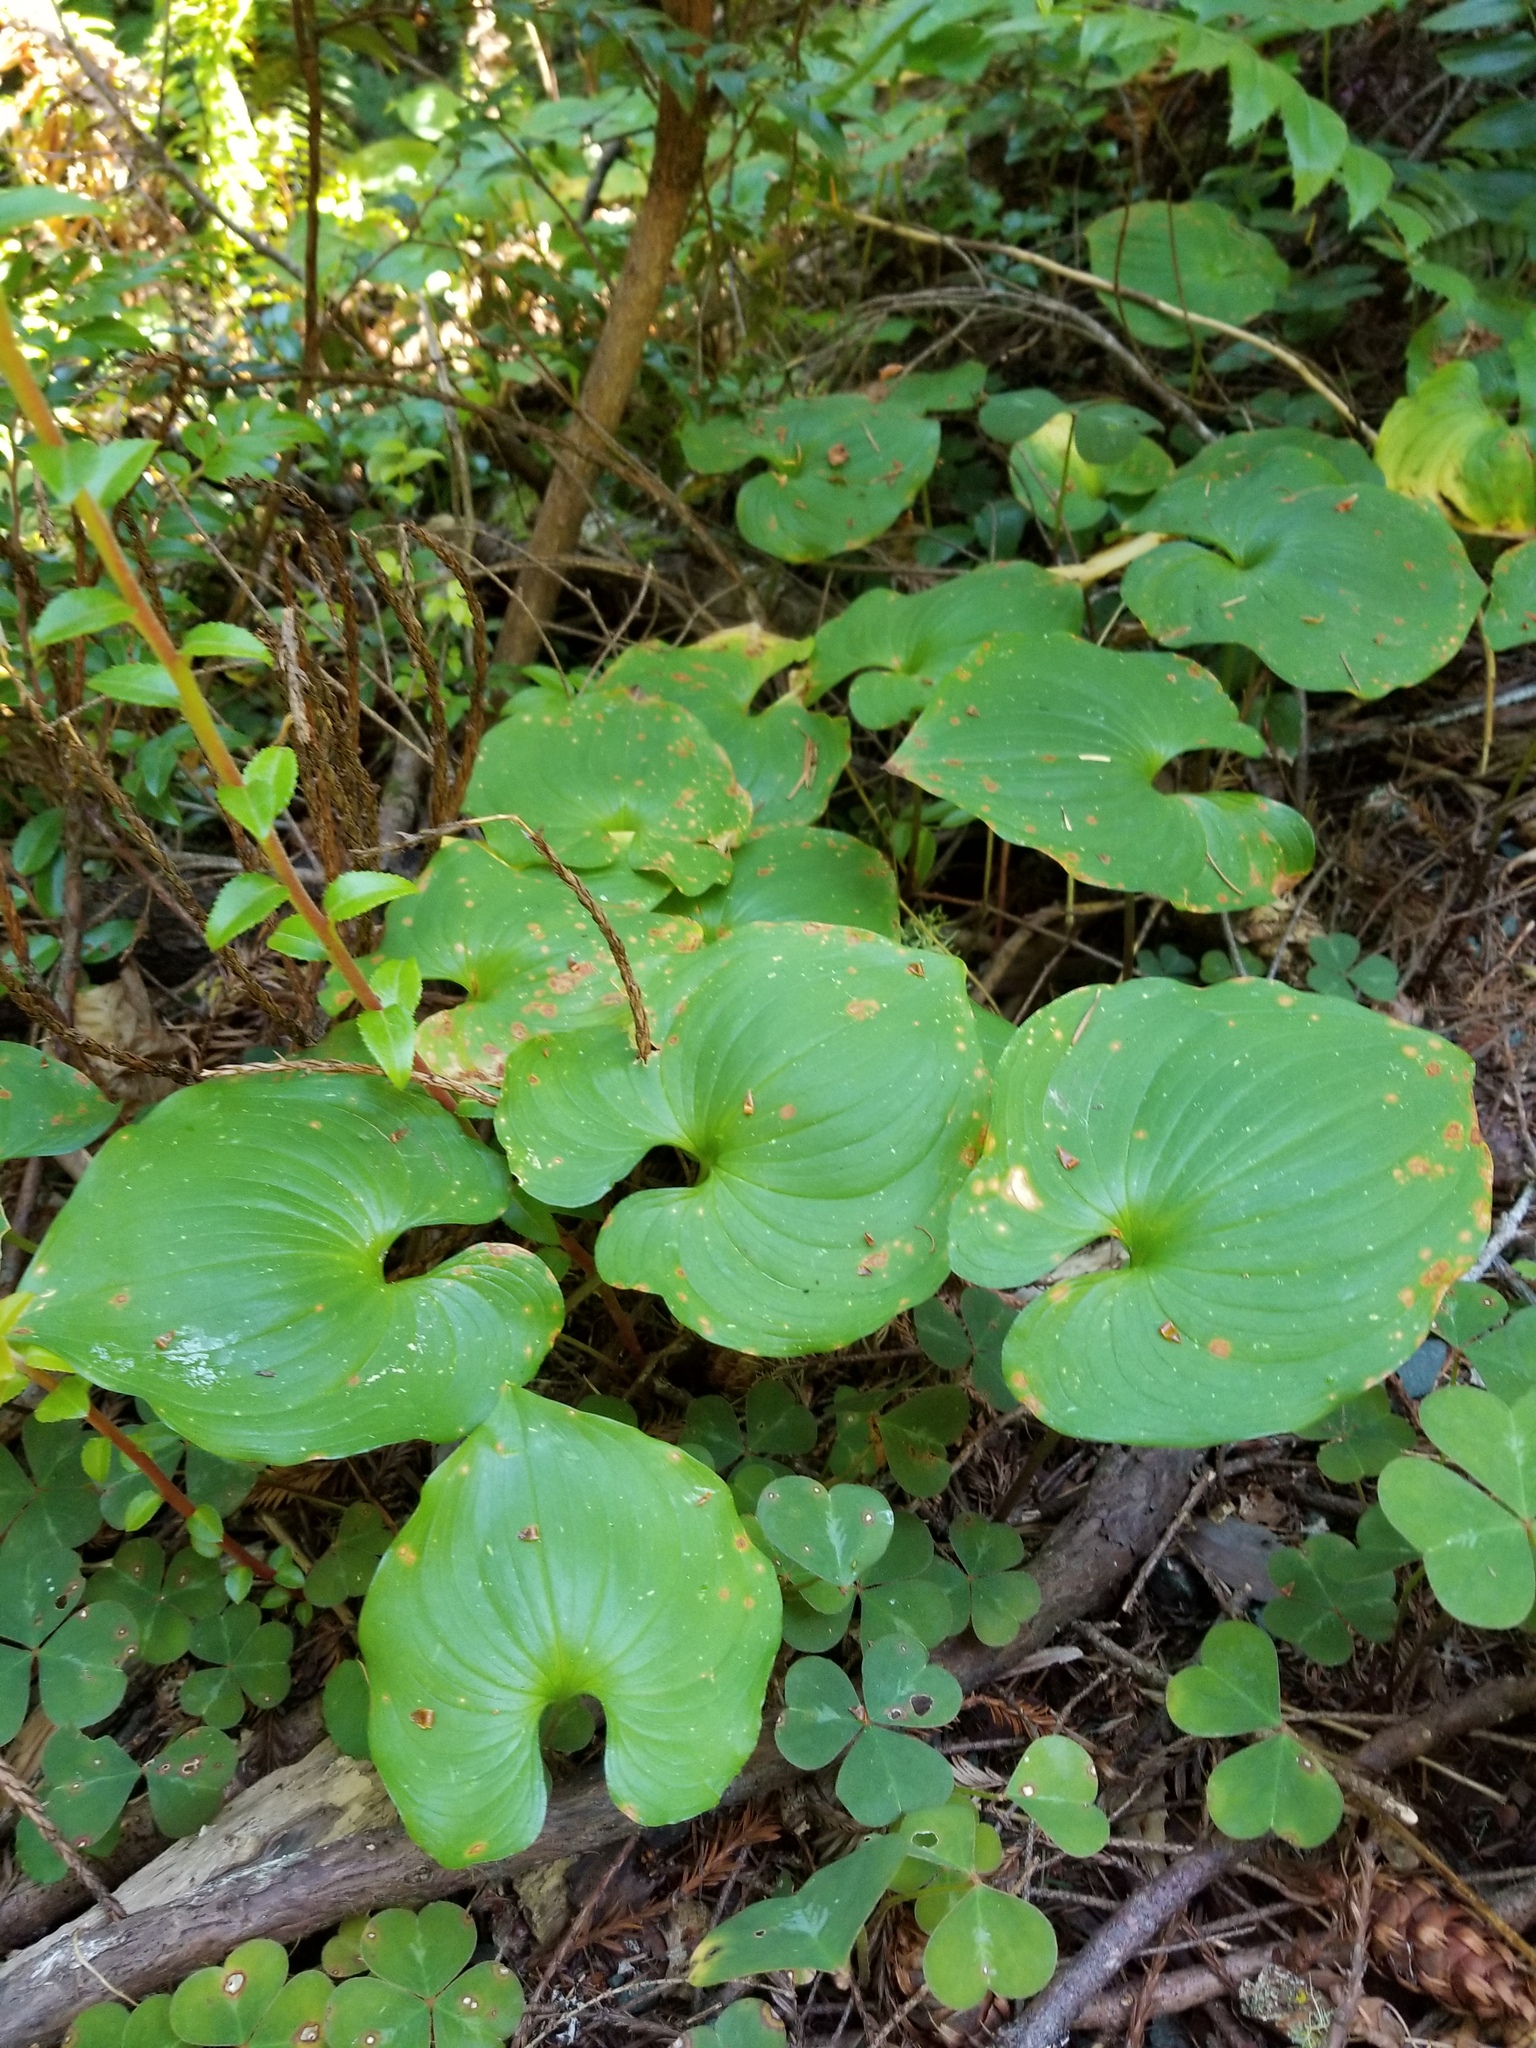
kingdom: Plantae
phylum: Tracheophyta
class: Liliopsida
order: Asparagales
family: Asparagaceae
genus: Maianthemum
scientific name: Maianthemum dilatatum
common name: False lily-of-the-valley
